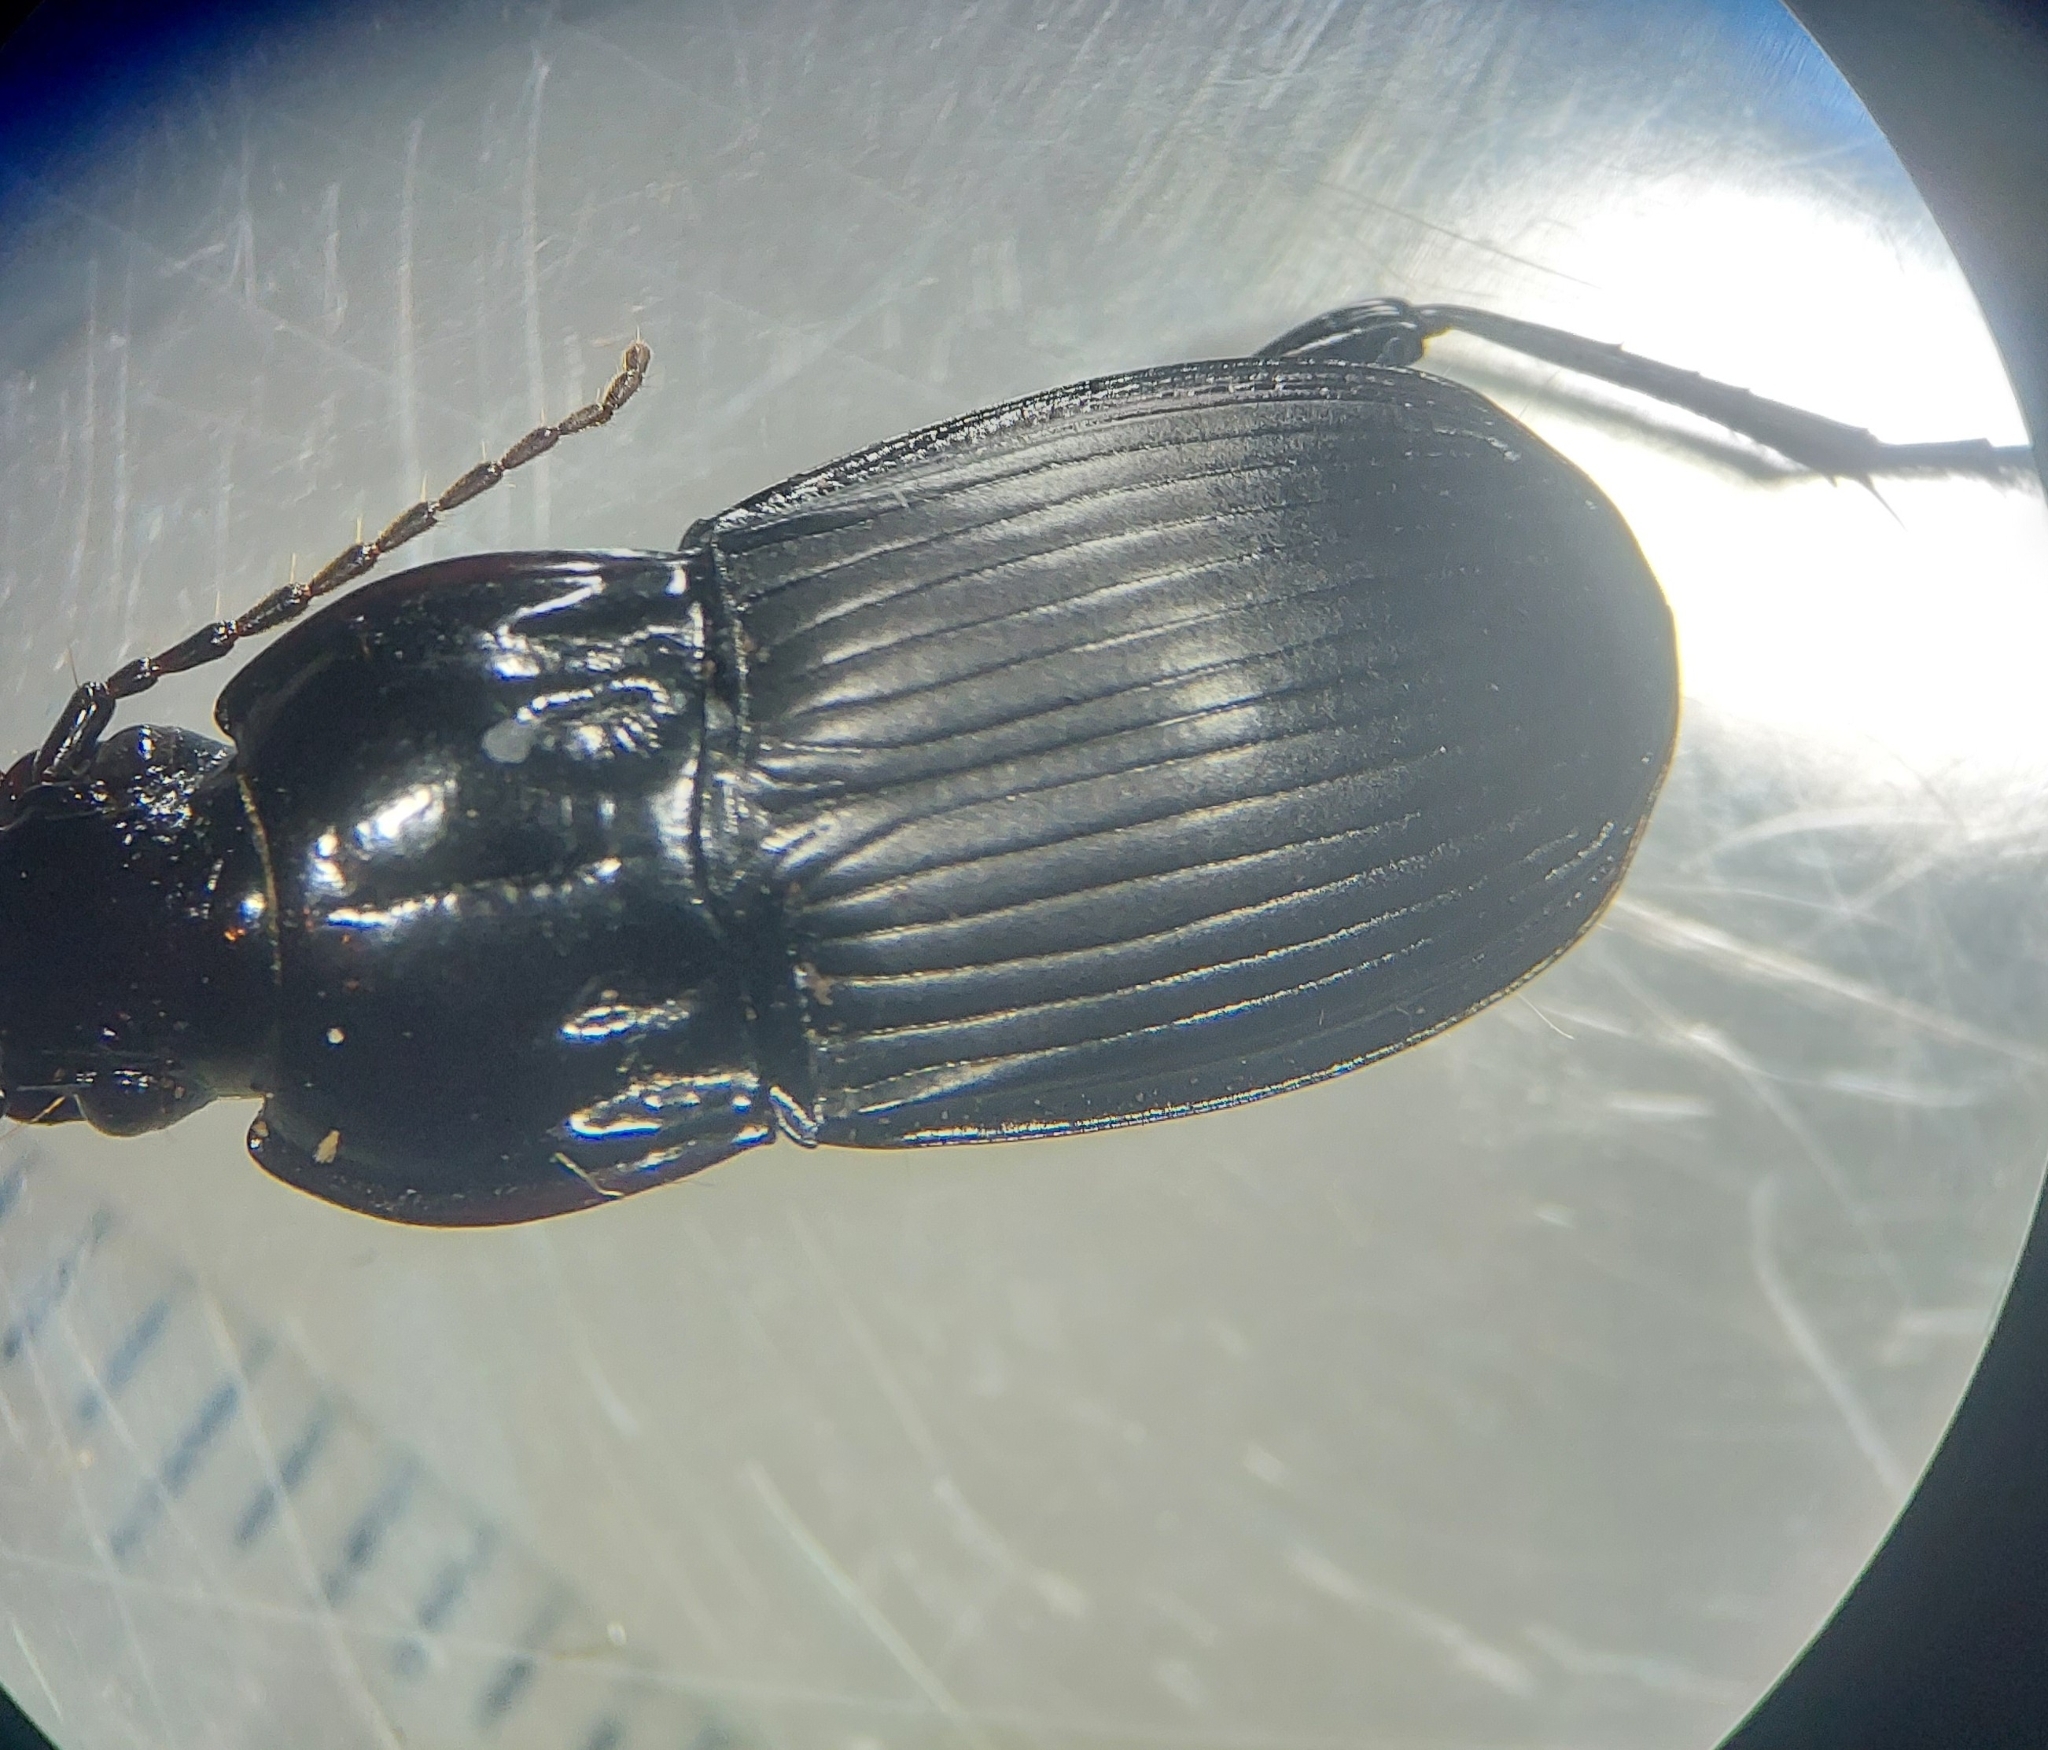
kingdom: Animalia
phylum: Arthropoda
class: Insecta
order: Coleoptera
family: Carabidae
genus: Abax
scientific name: Abax parallelepipedus
